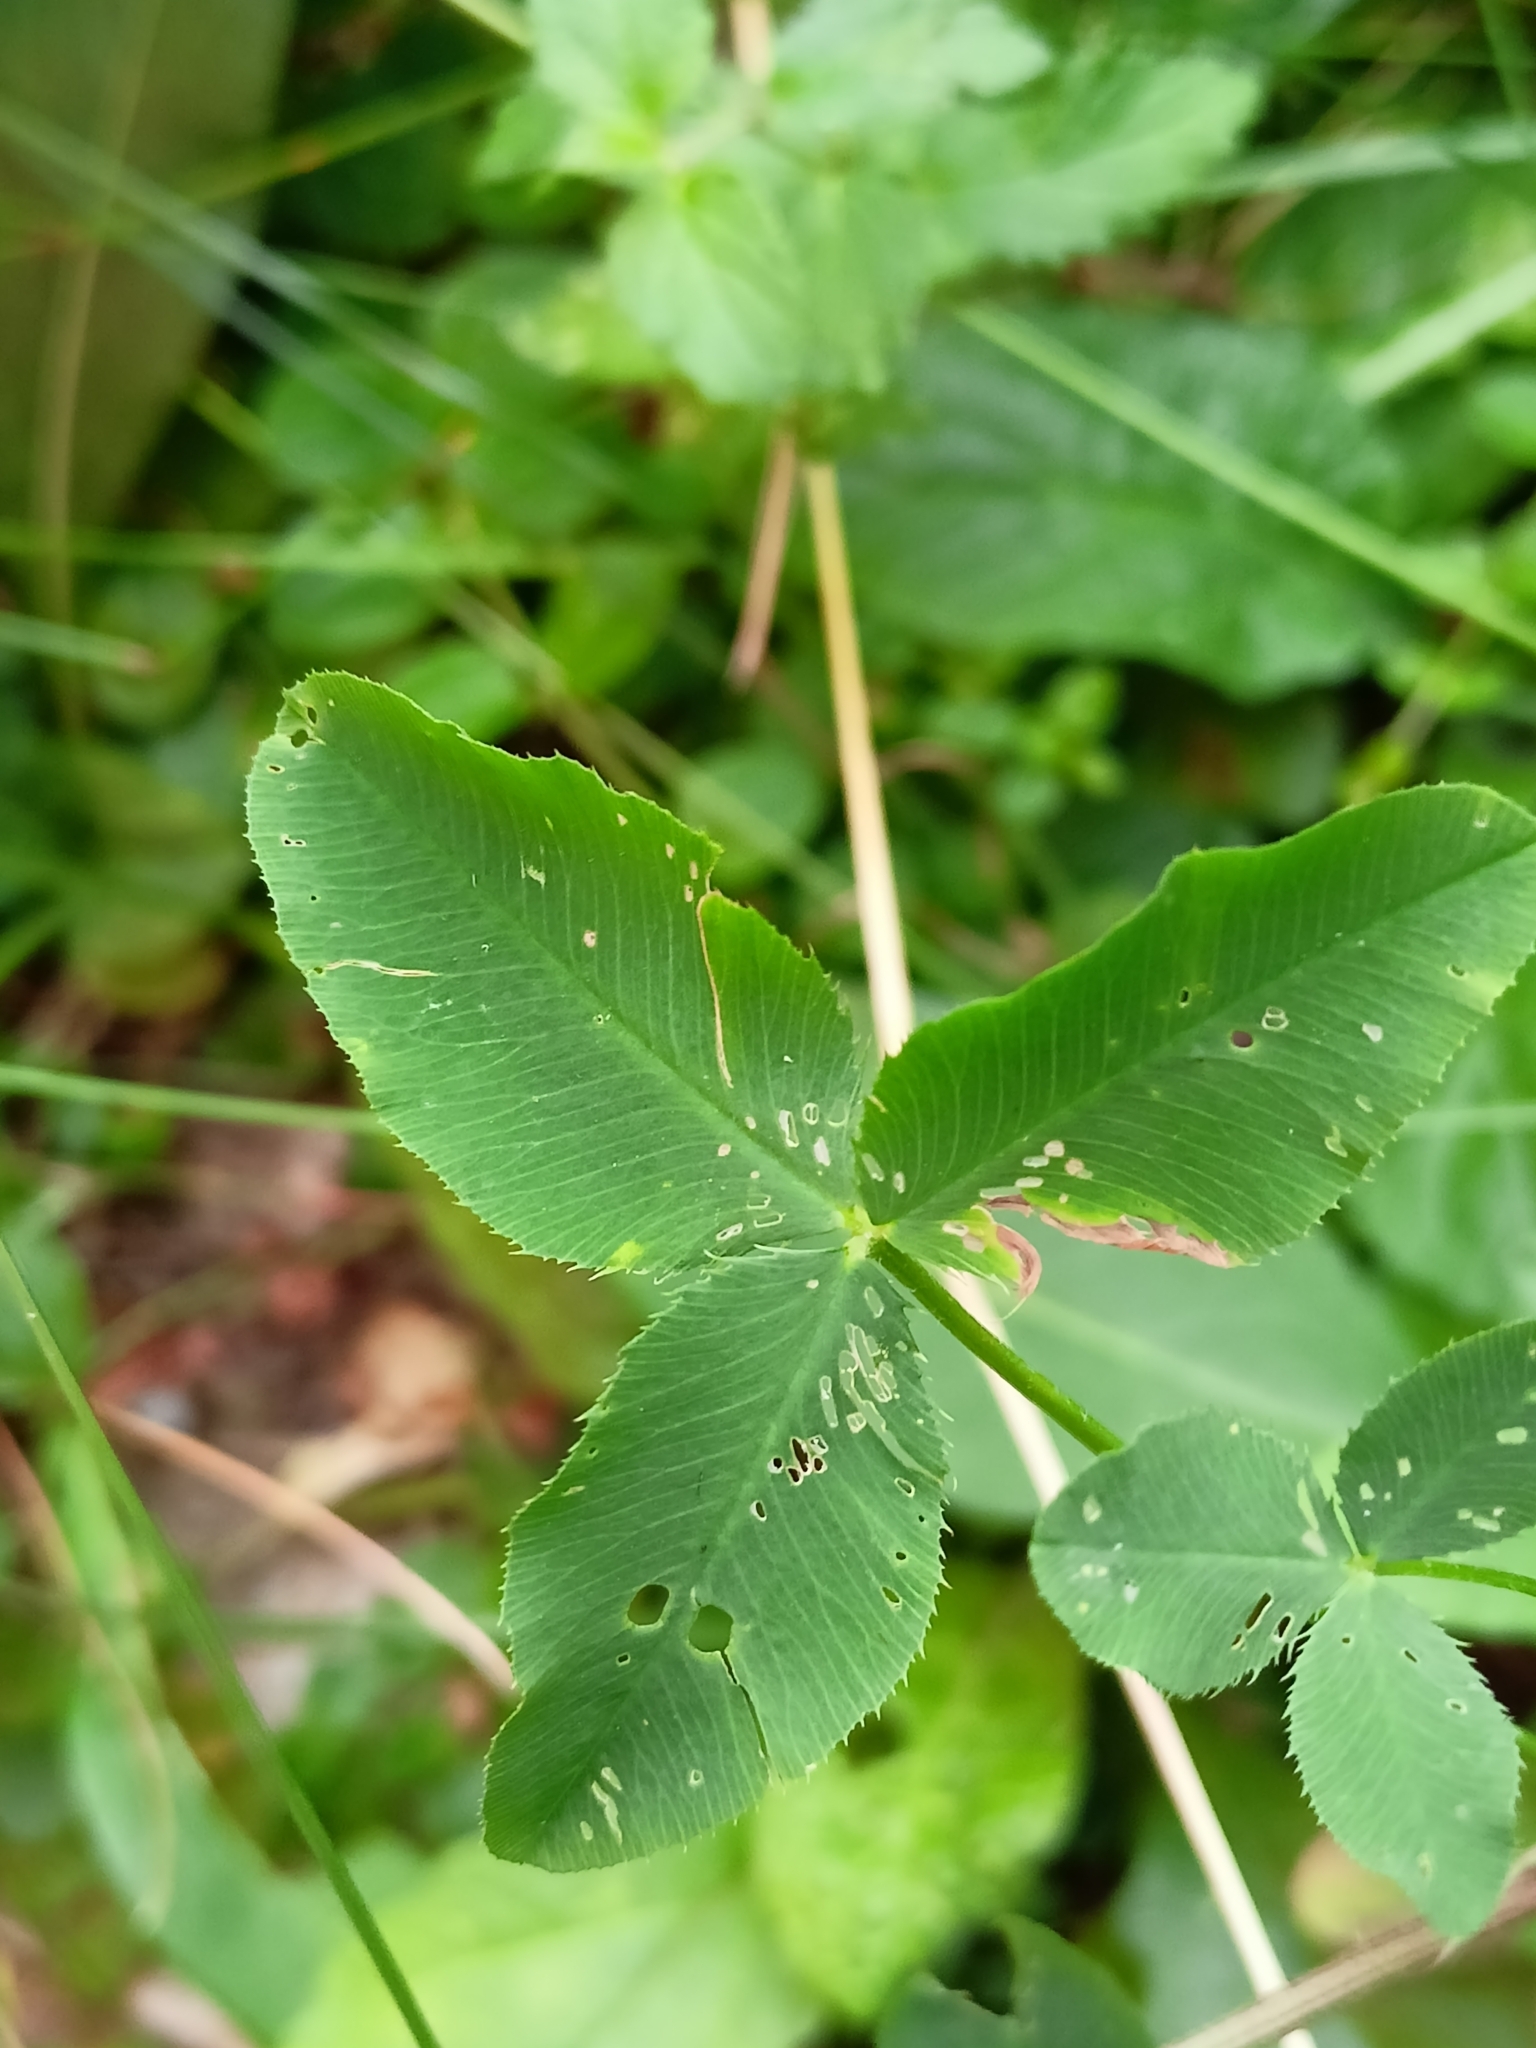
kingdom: Plantae
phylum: Tracheophyta
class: Magnoliopsida
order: Fabales
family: Fabaceae
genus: Trifolium
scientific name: Trifolium hybridum
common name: Alsike clover
